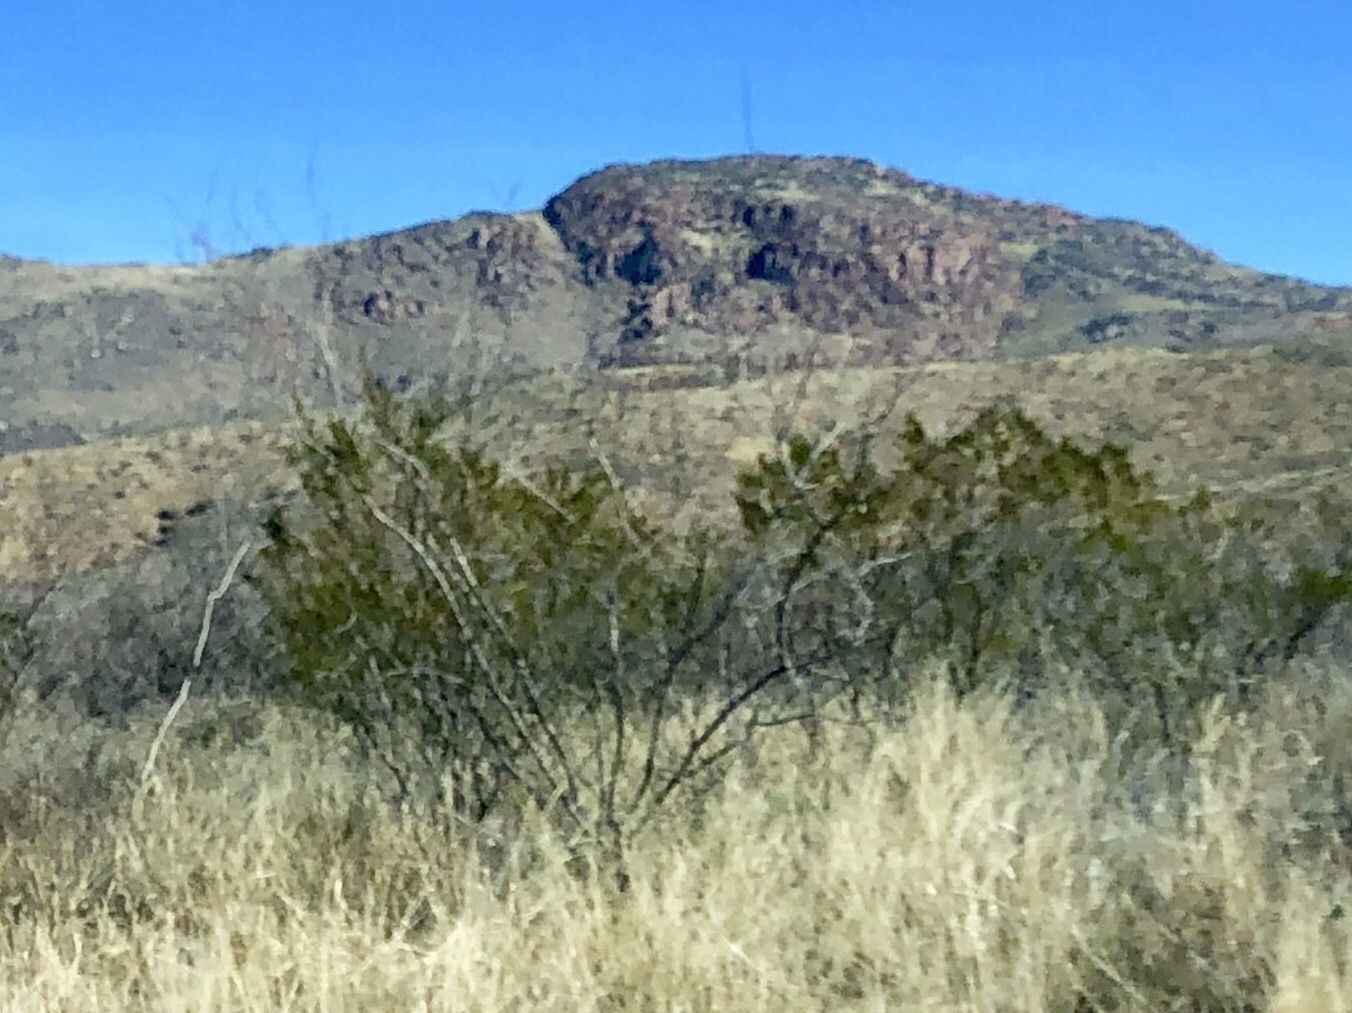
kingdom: Plantae
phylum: Tracheophyta
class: Magnoliopsida
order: Zygophyllales
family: Zygophyllaceae
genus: Larrea
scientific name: Larrea tridentata
